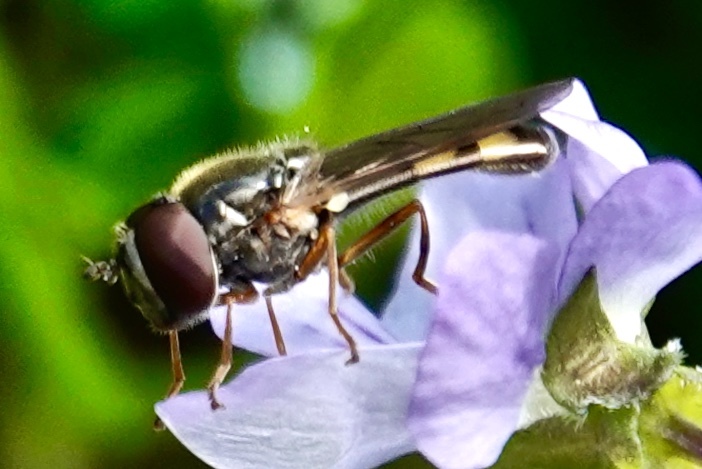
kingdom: Animalia
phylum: Arthropoda
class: Insecta
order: Diptera
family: Syrphidae
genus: Melanostoma
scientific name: Melanostoma mellina
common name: Hover fly
